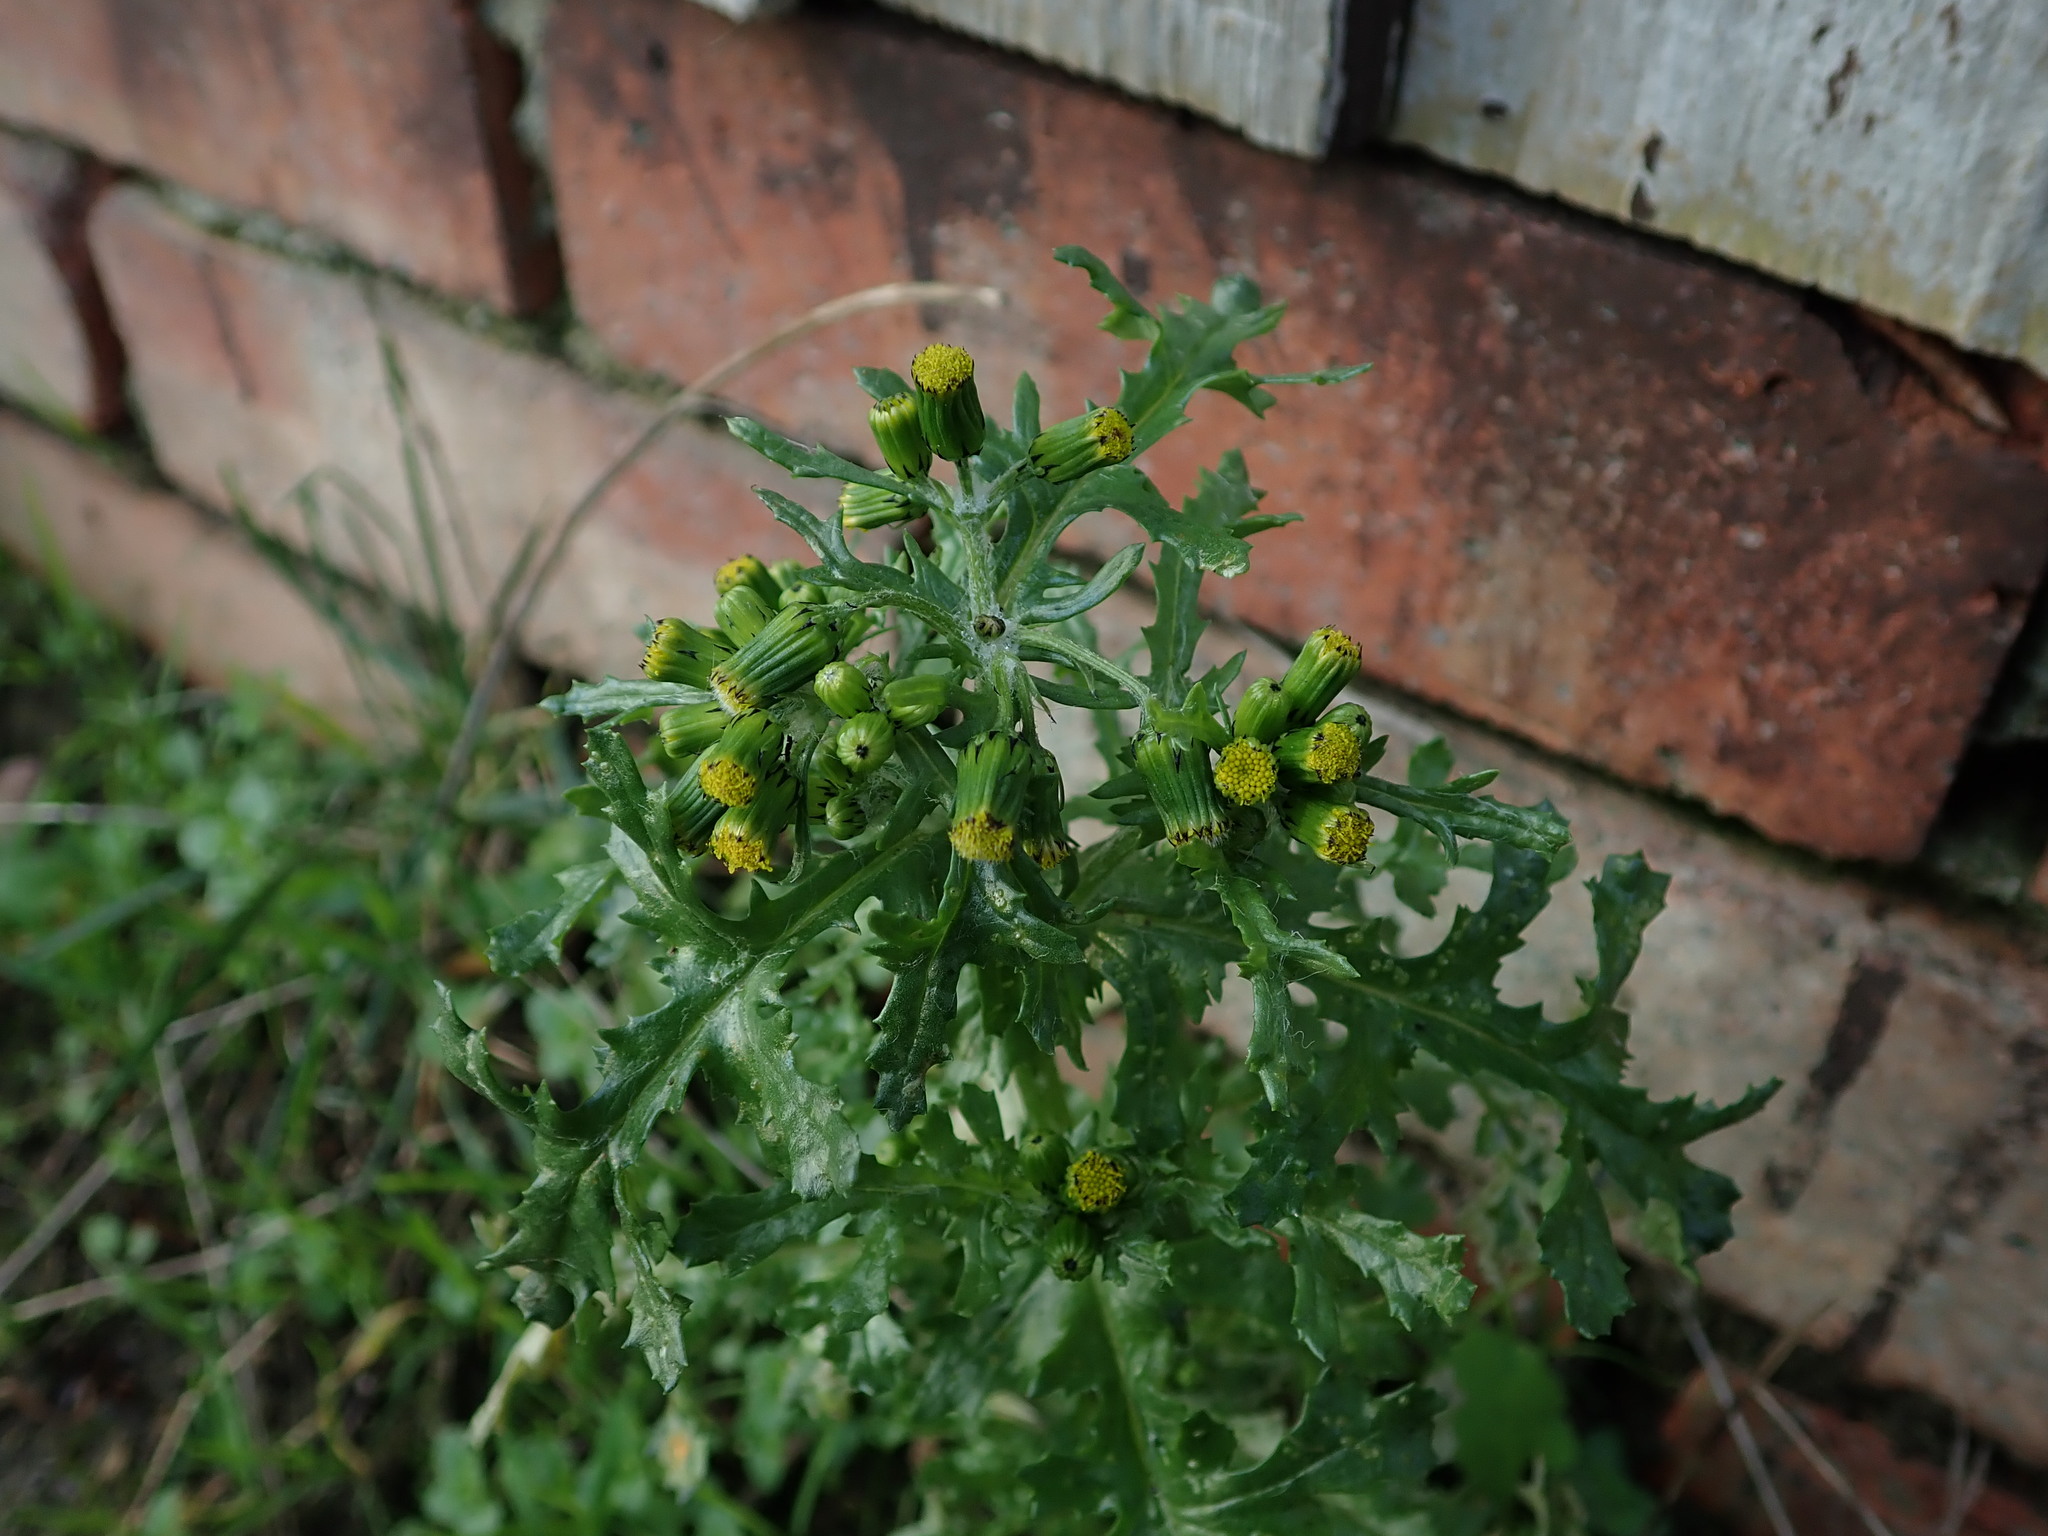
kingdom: Plantae
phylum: Tracheophyta
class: Magnoliopsida
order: Asterales
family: Asteraceae
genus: Senecio
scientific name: Senecio vulgaris
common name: Old-man-in-the-spring
